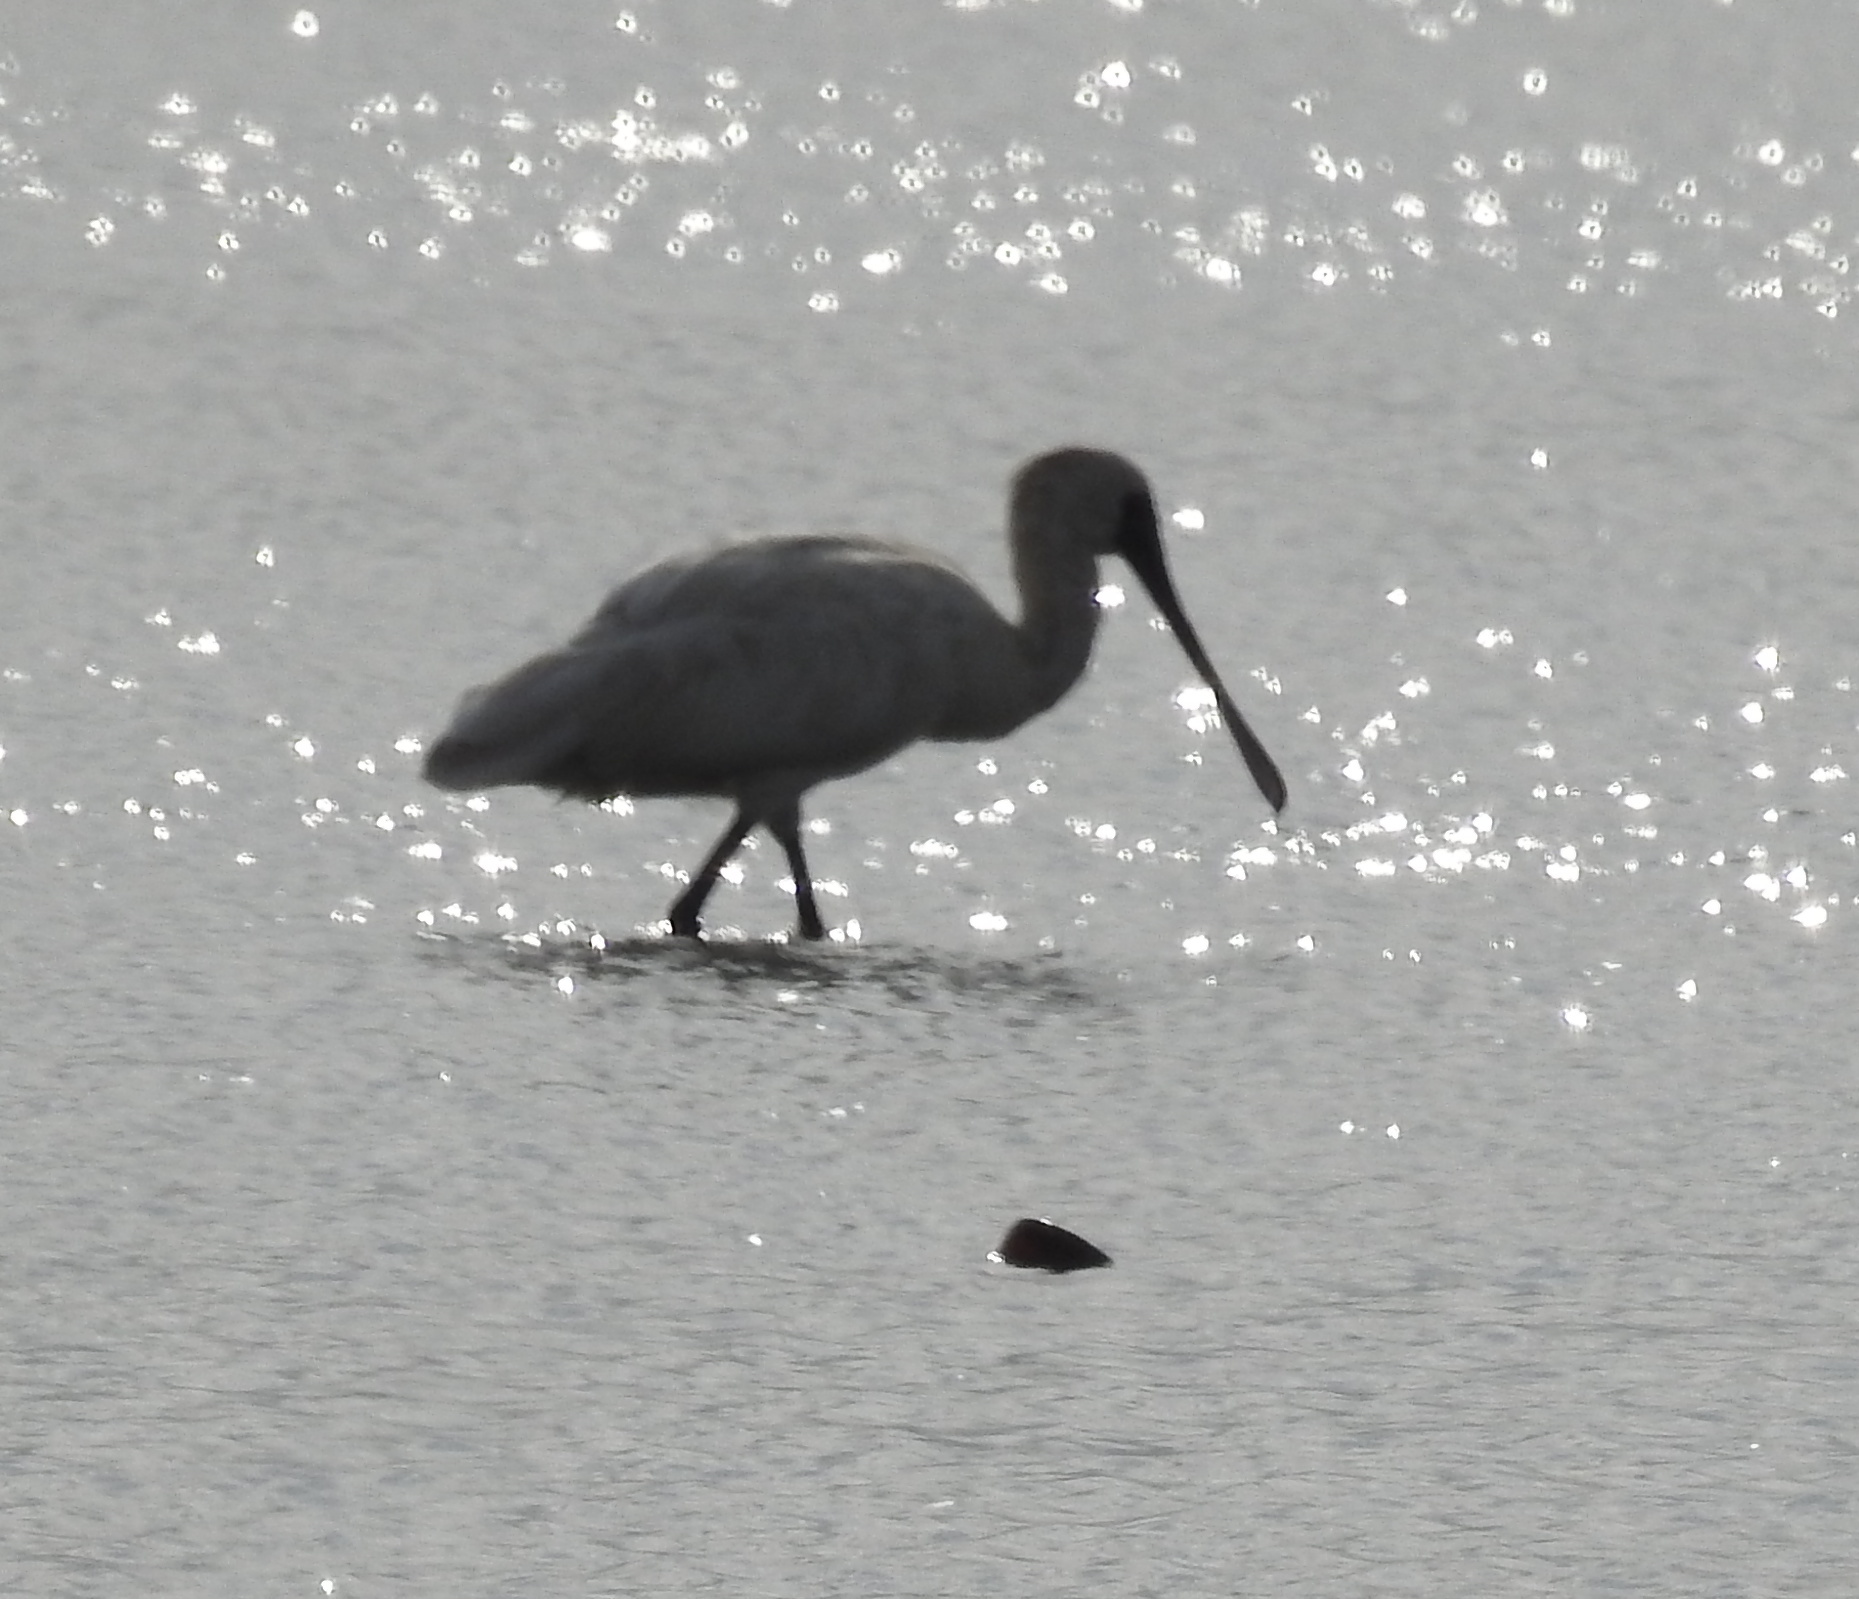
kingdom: Animalia
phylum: Chordata
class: Aves
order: Pelecaniformes
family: Threskiornithidae
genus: Platalea
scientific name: Platalea minor
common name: Black-faced spoonbill
